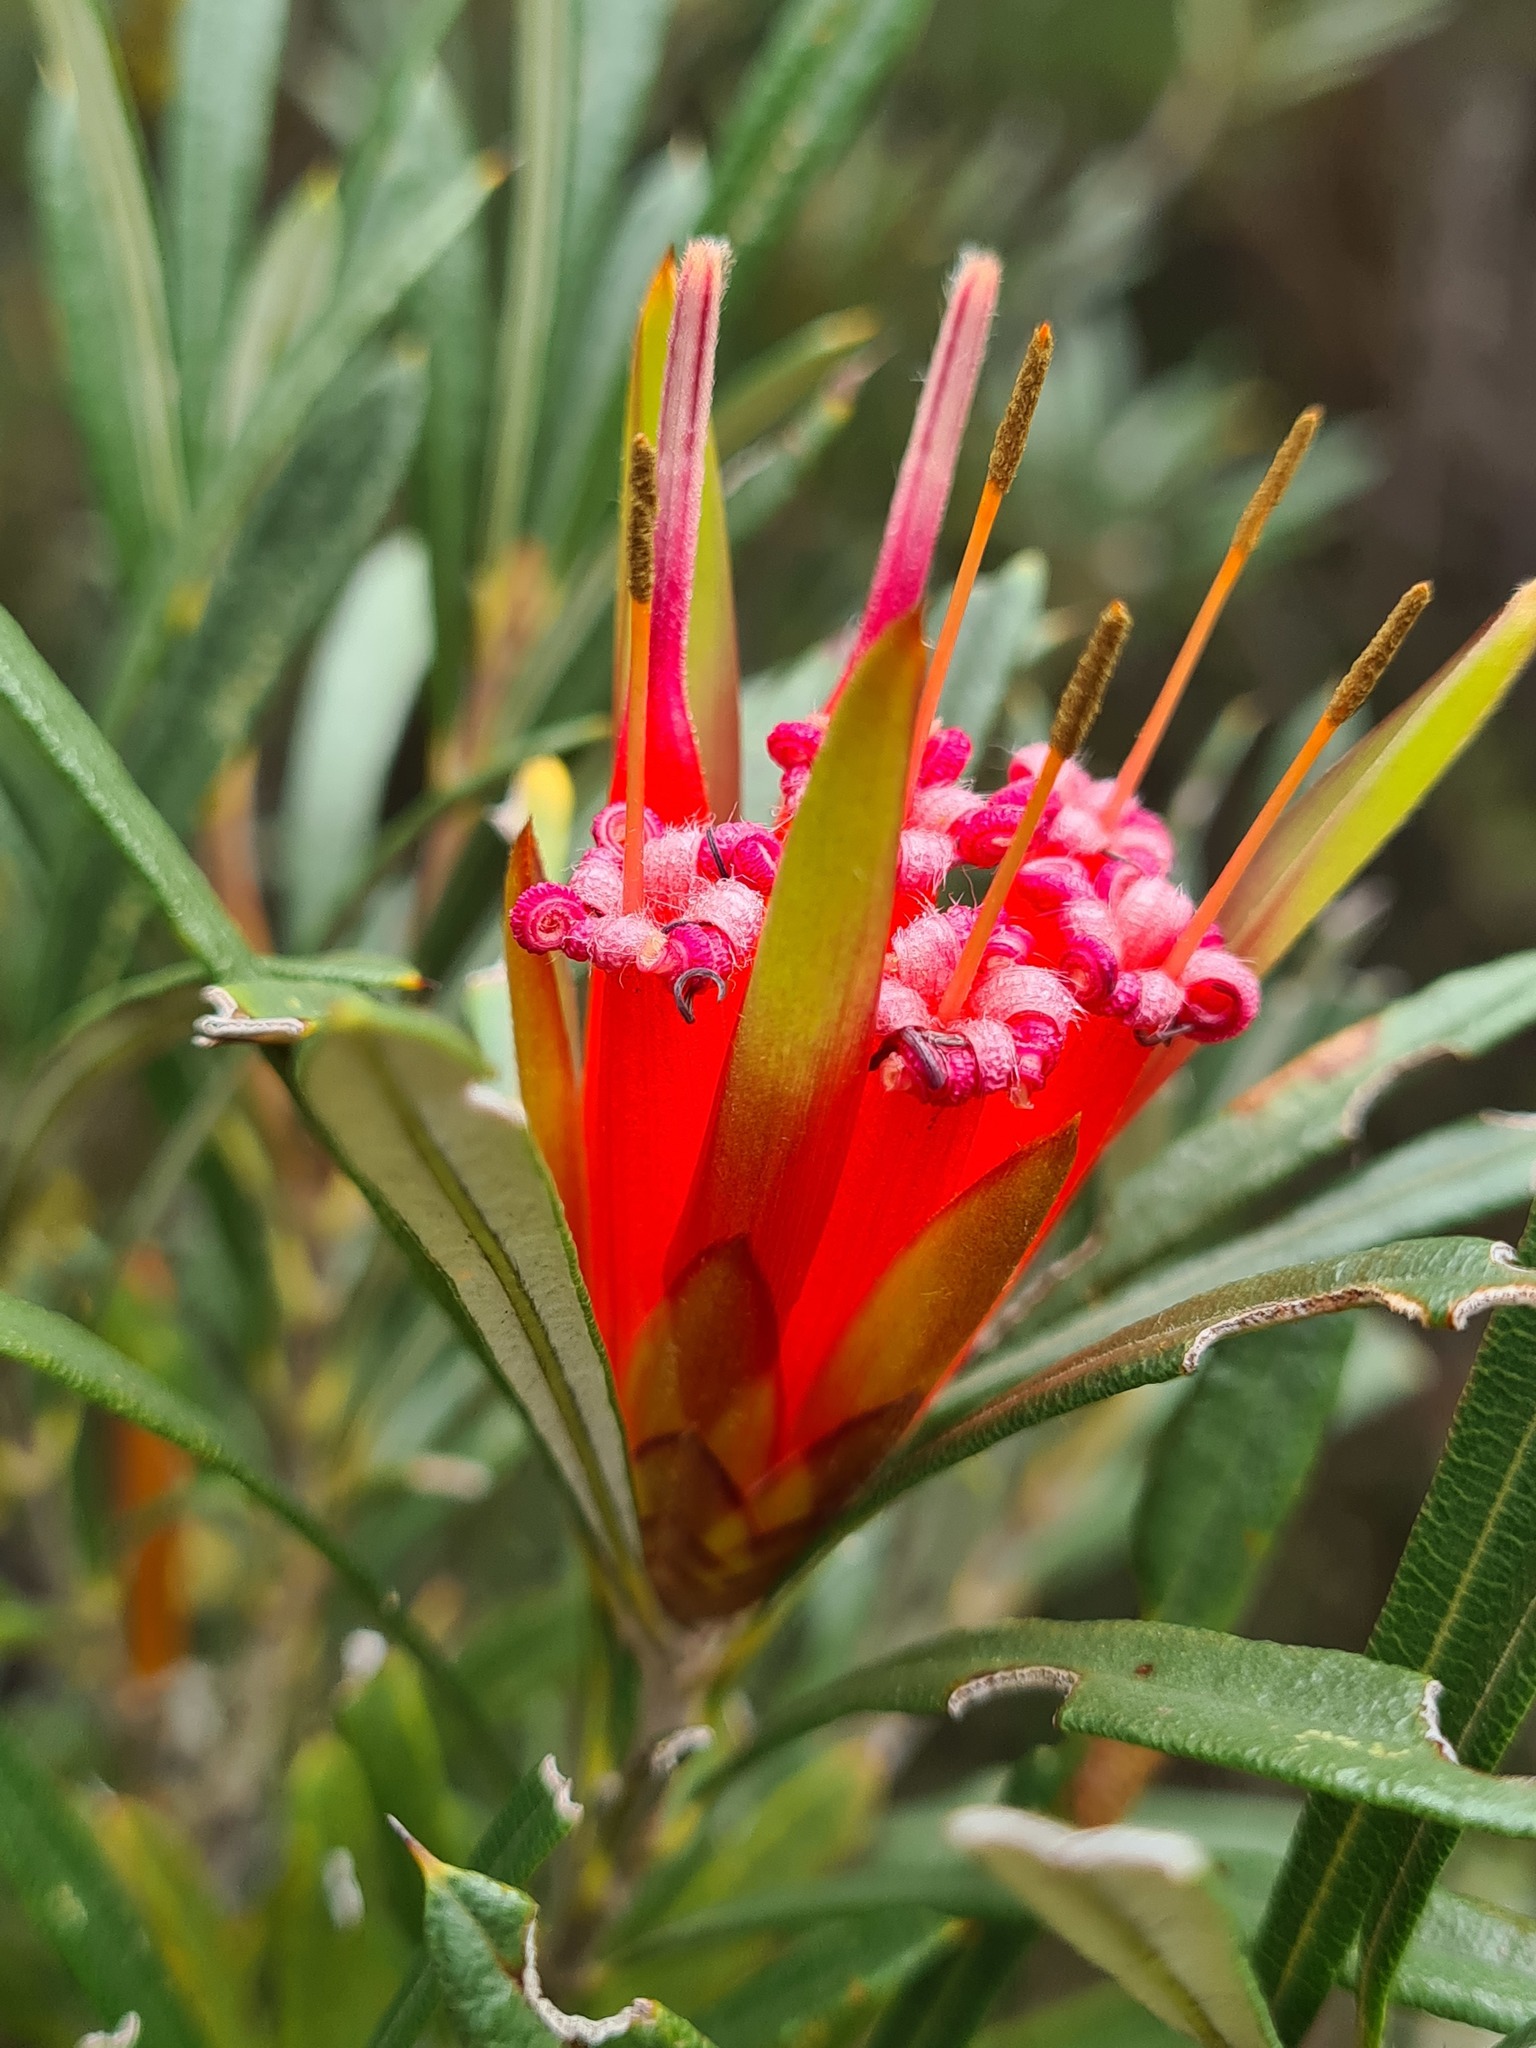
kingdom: Plantae
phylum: Tracheophyta
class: Magnoliopsida
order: Proteales
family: Proteaceae
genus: Lambertia
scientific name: Lambertia formosa
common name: Mountain-devil
